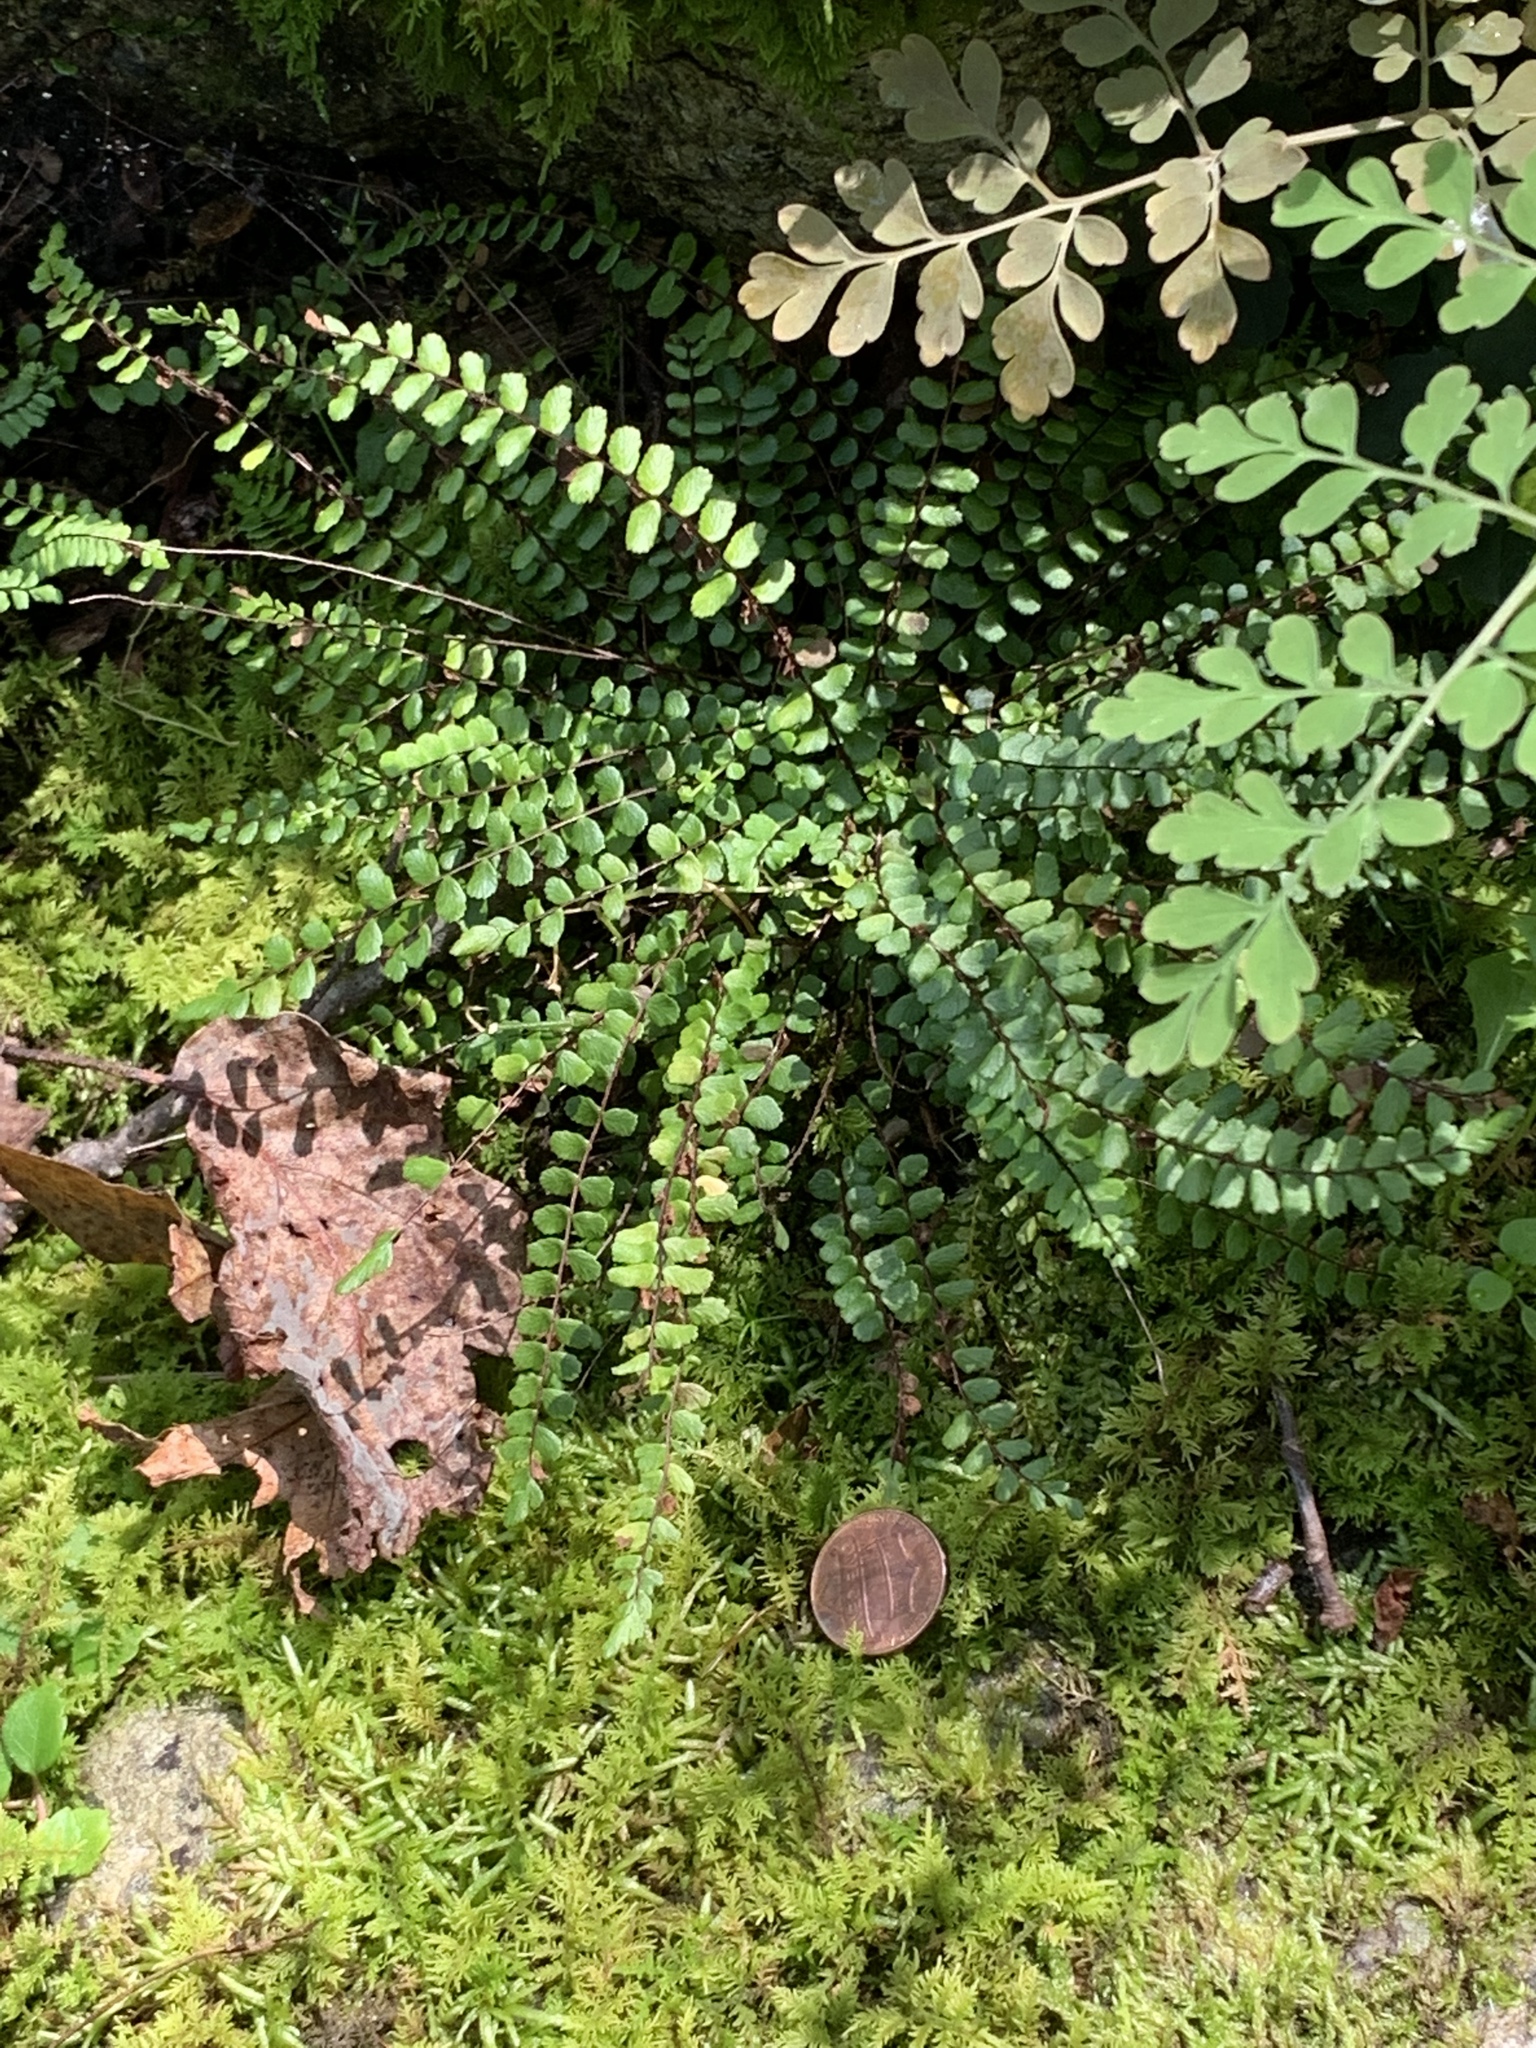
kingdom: Plantae
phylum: Tracheophyta
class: Polypodiopsida
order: Polypodiales
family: Aspleniaceae
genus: Asplenium
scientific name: Asplenium trichomanes
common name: Maidenhair spleenwort
